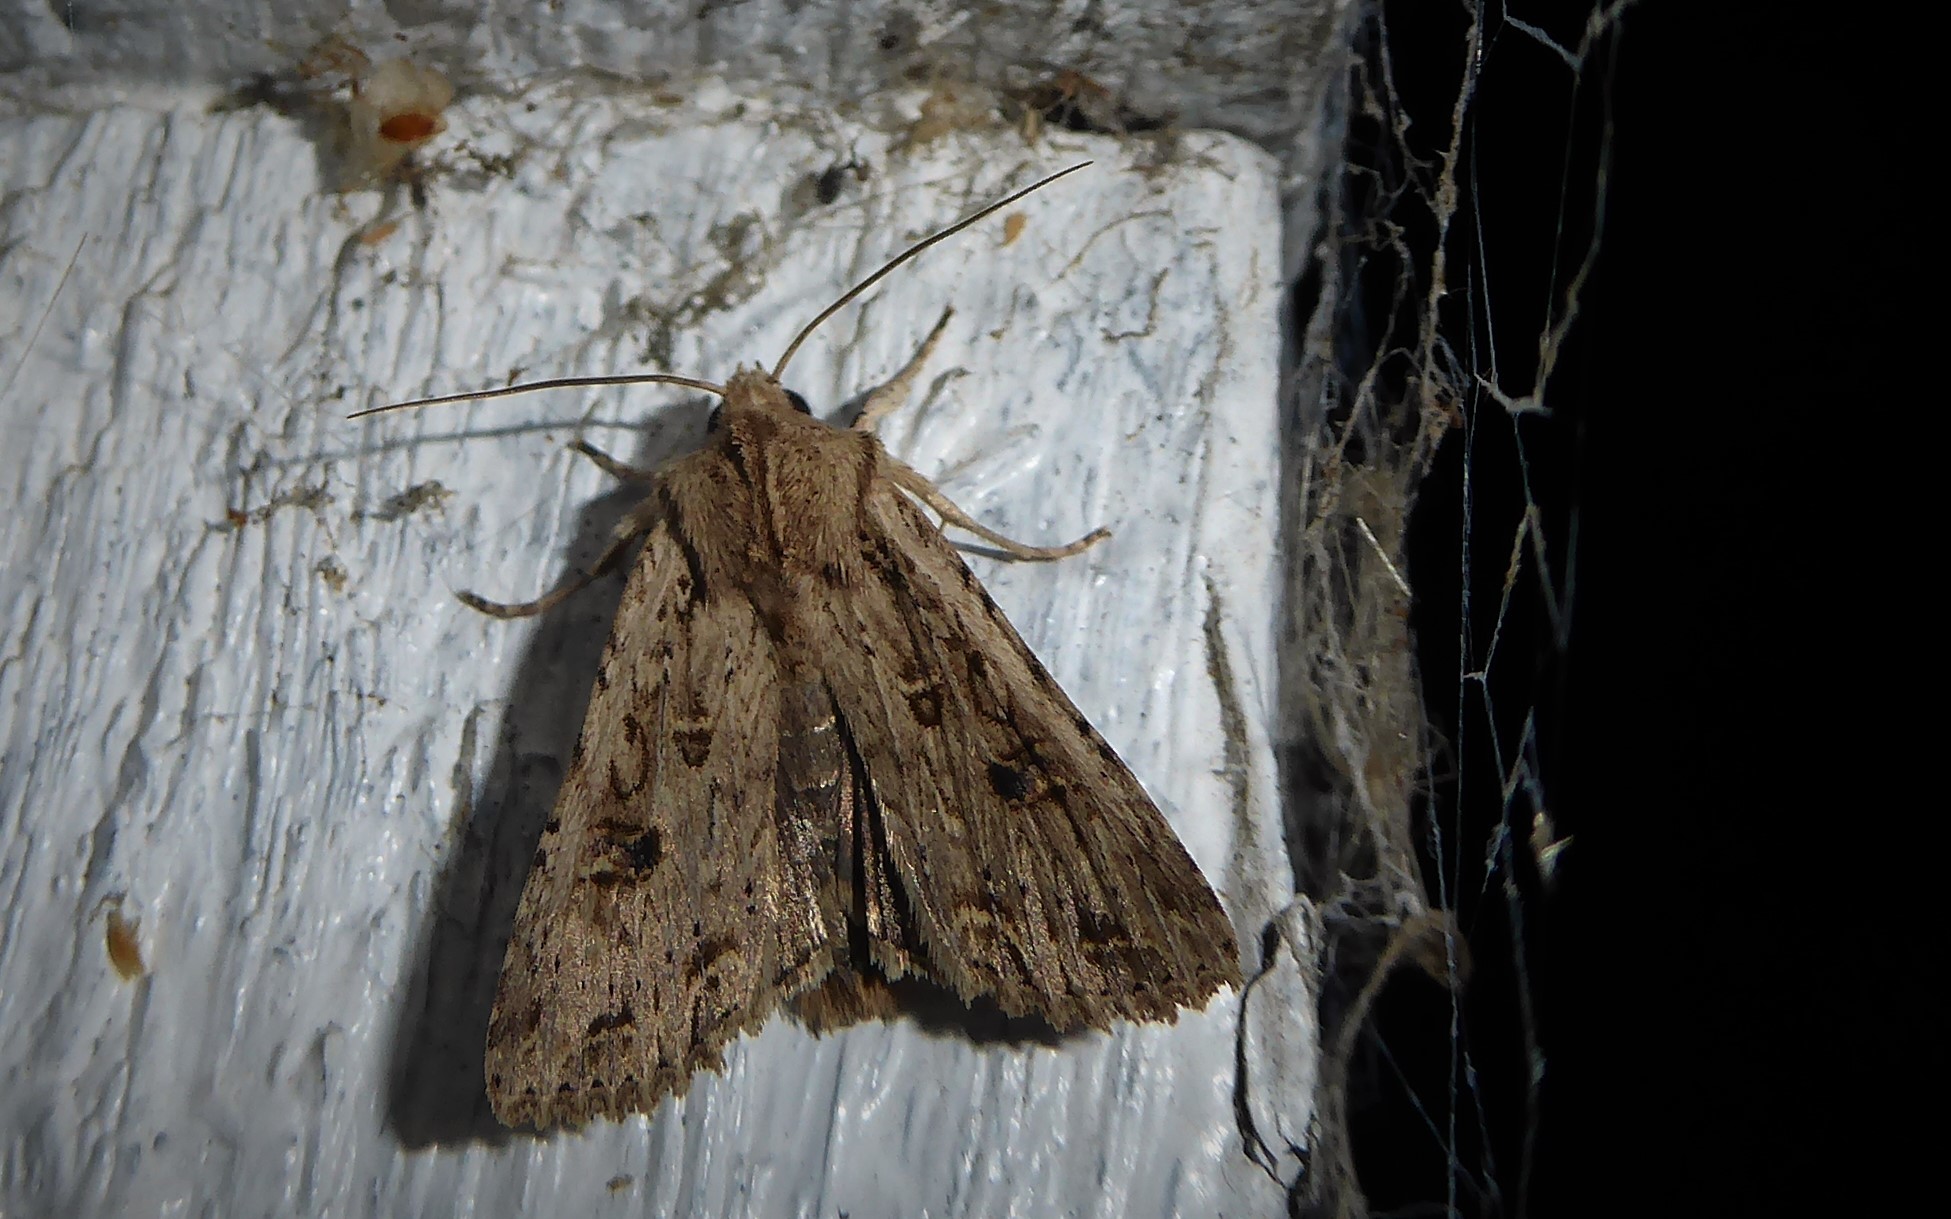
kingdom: Animalia
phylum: Arthropoda
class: Insecta
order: Lepidoptera
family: Noctuidae
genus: Ichneutica
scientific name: Ichneutica lignana
